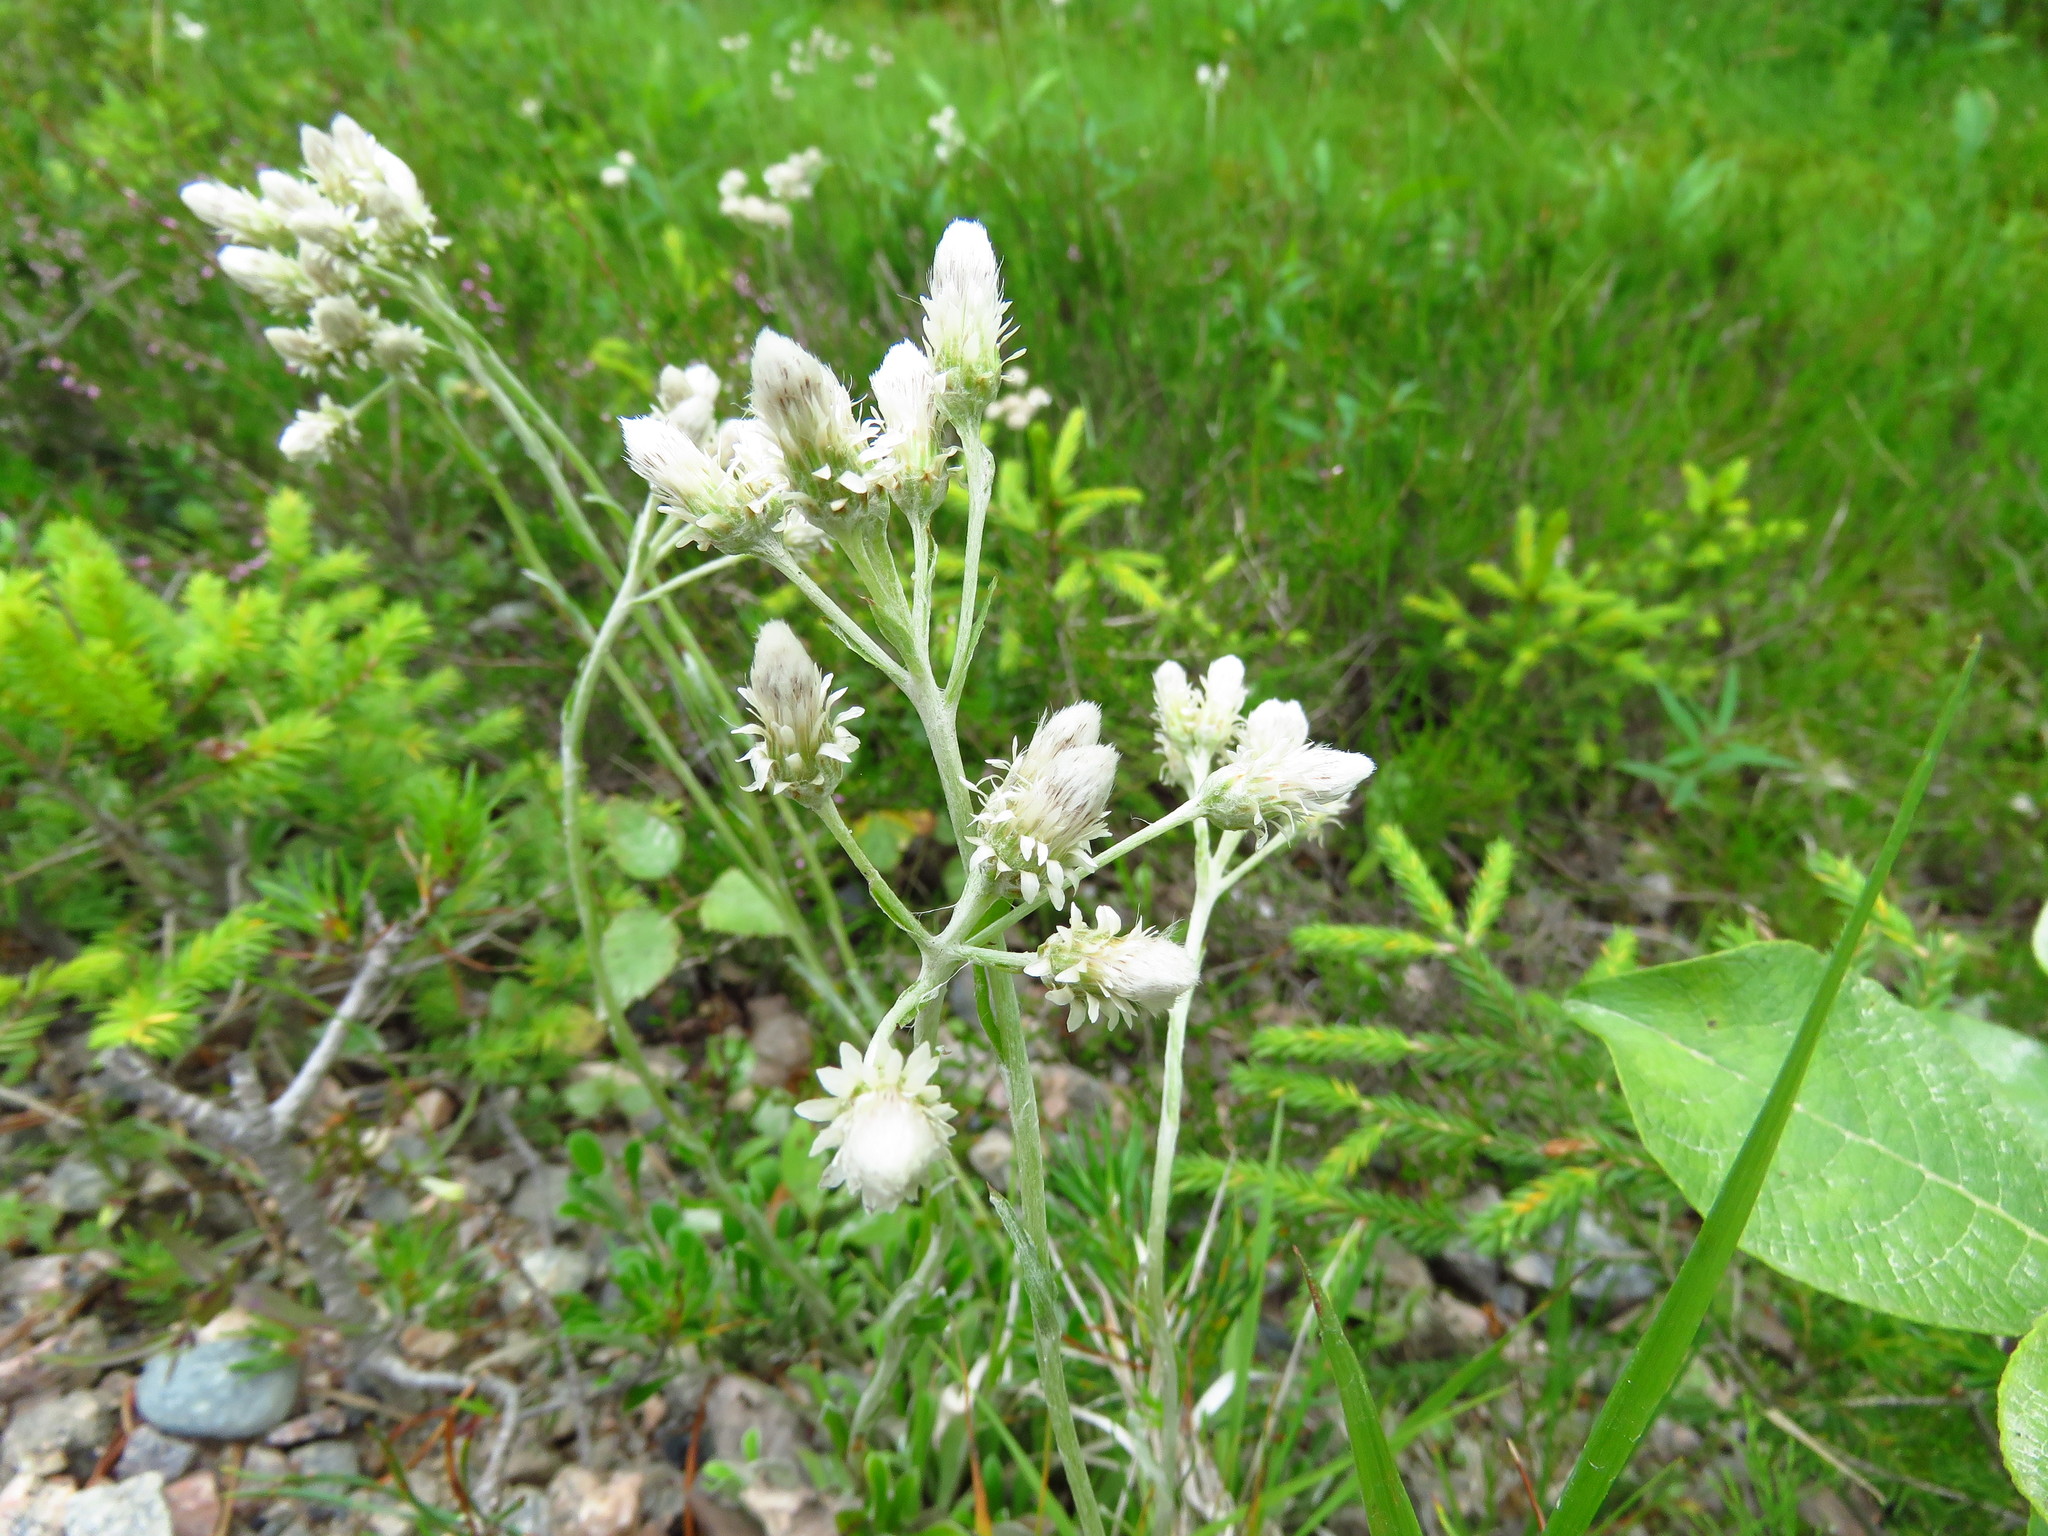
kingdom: Plantae
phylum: Tracheophyta
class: Magnoliopsida
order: Asterales
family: Asteraceae
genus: Antennaria
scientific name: Antennaria dioica
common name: Mountain everlasting
